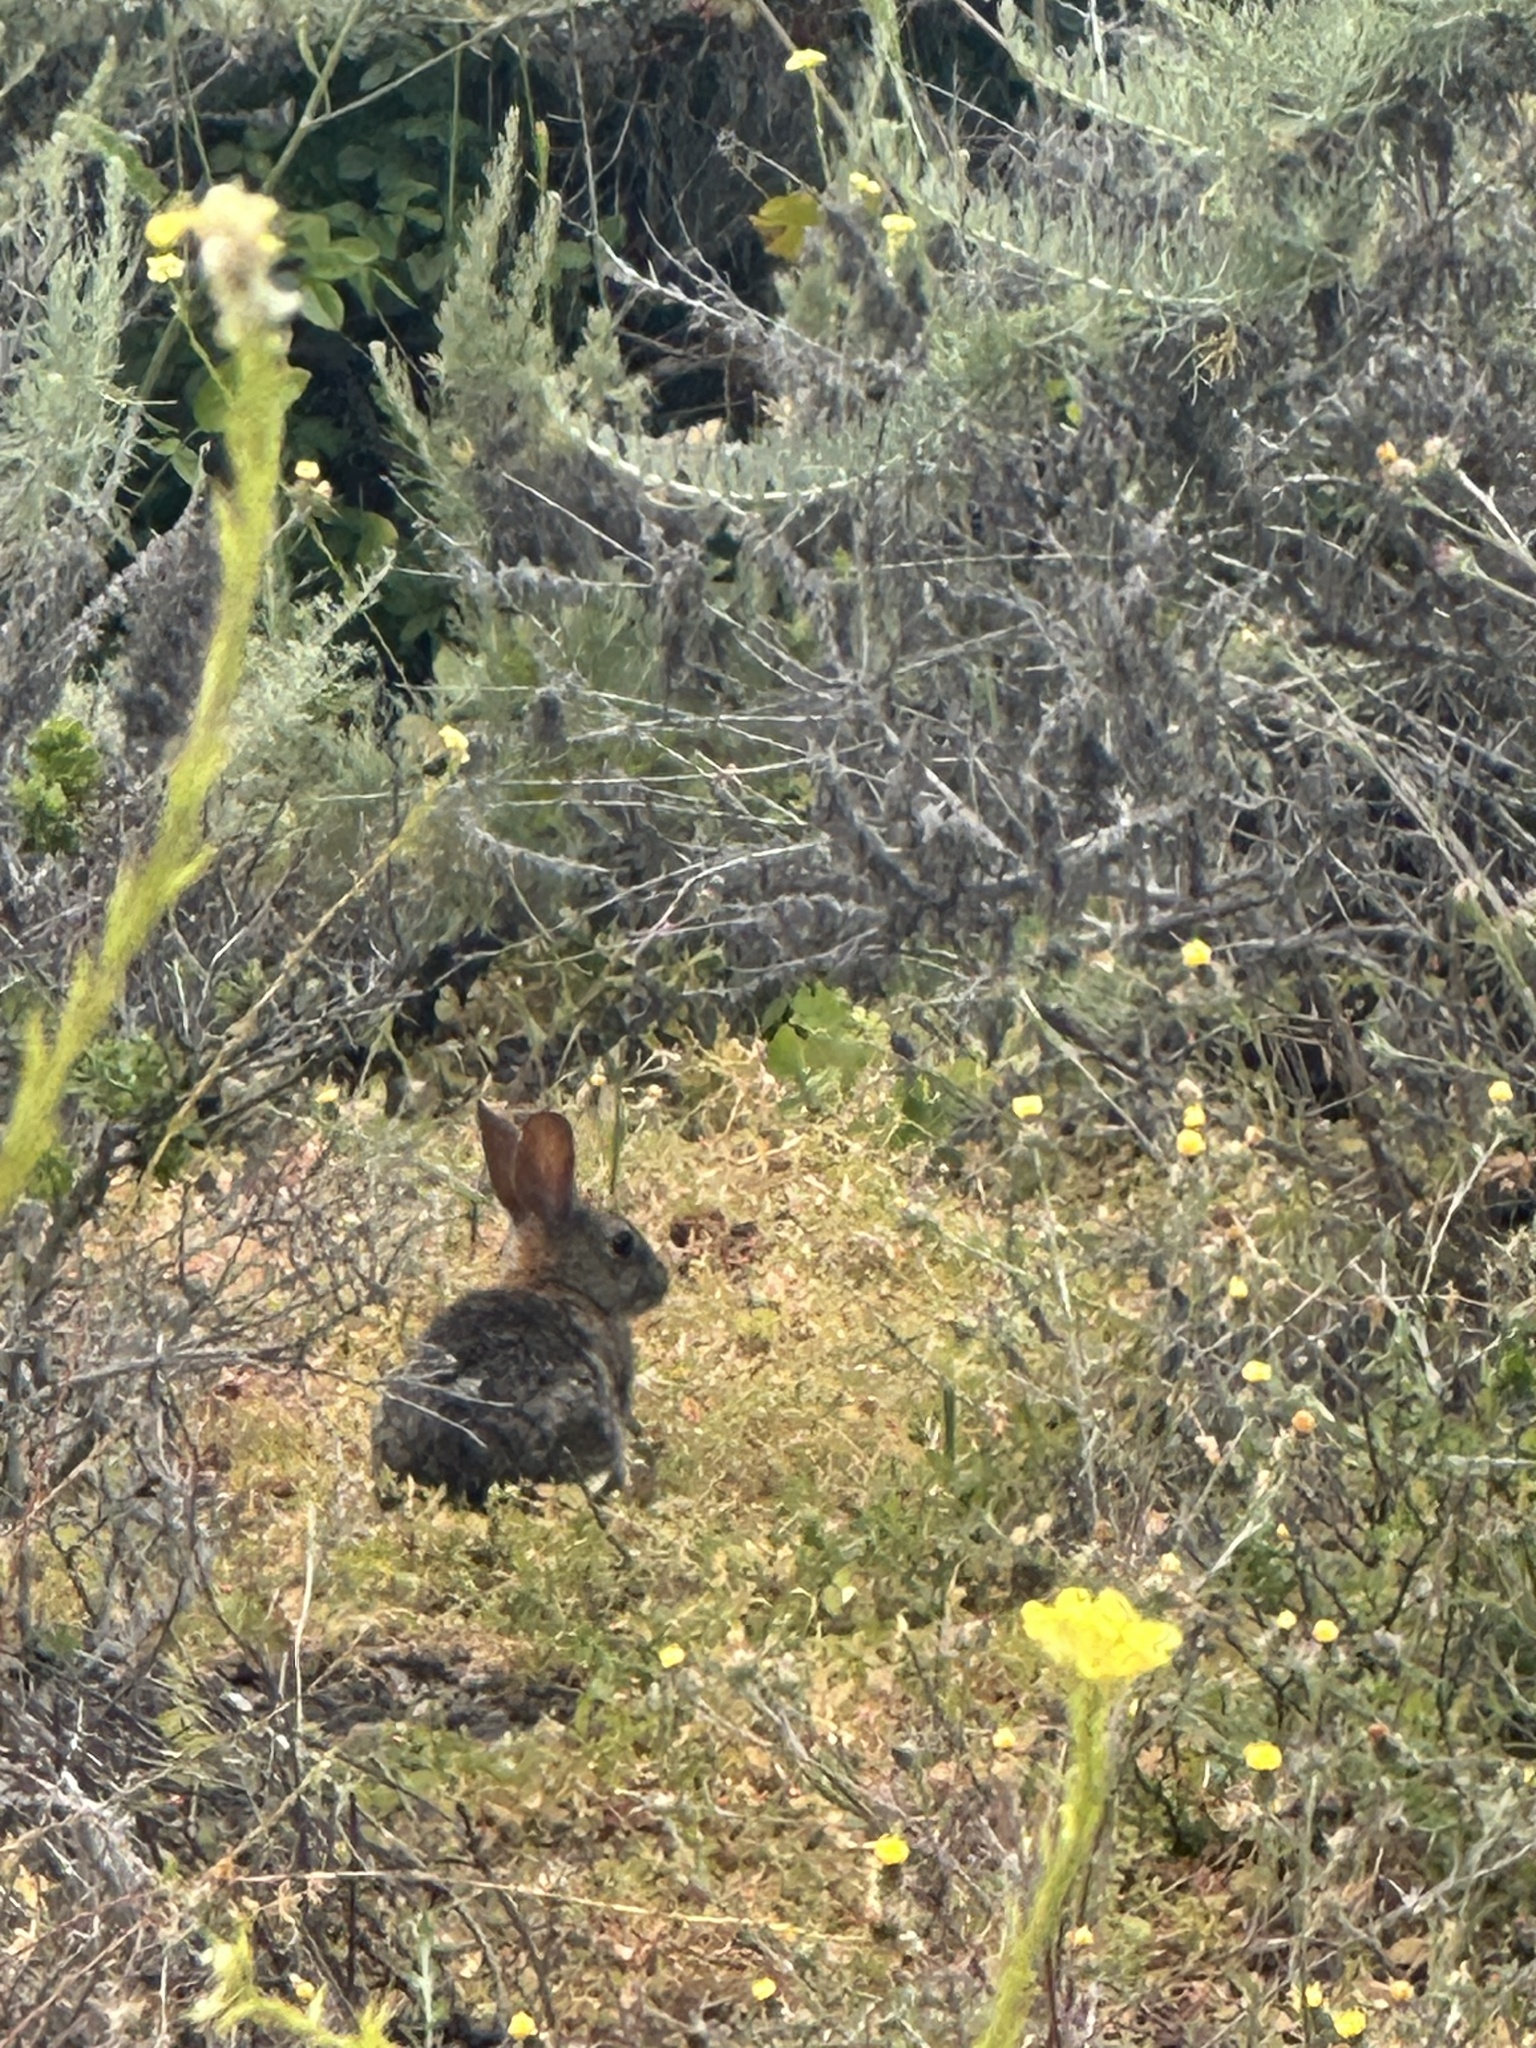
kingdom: Animalia
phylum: Chordata
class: Mammalia
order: Lagomorpha
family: Leporidae
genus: Sylvilagus
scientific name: Sylvilagus bachmani
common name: Brush rabbit
